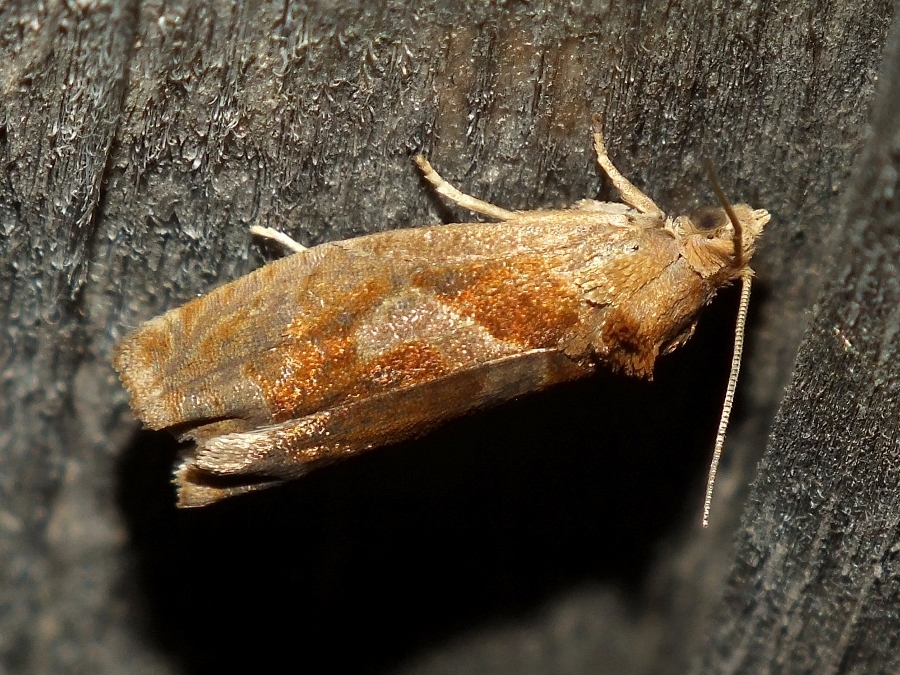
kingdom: Animalia
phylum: Arthropoda
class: Insecta
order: Lepidoptera
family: Tortricidae
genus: Epiblema
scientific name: Epiblema foenella
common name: White-foot bell
